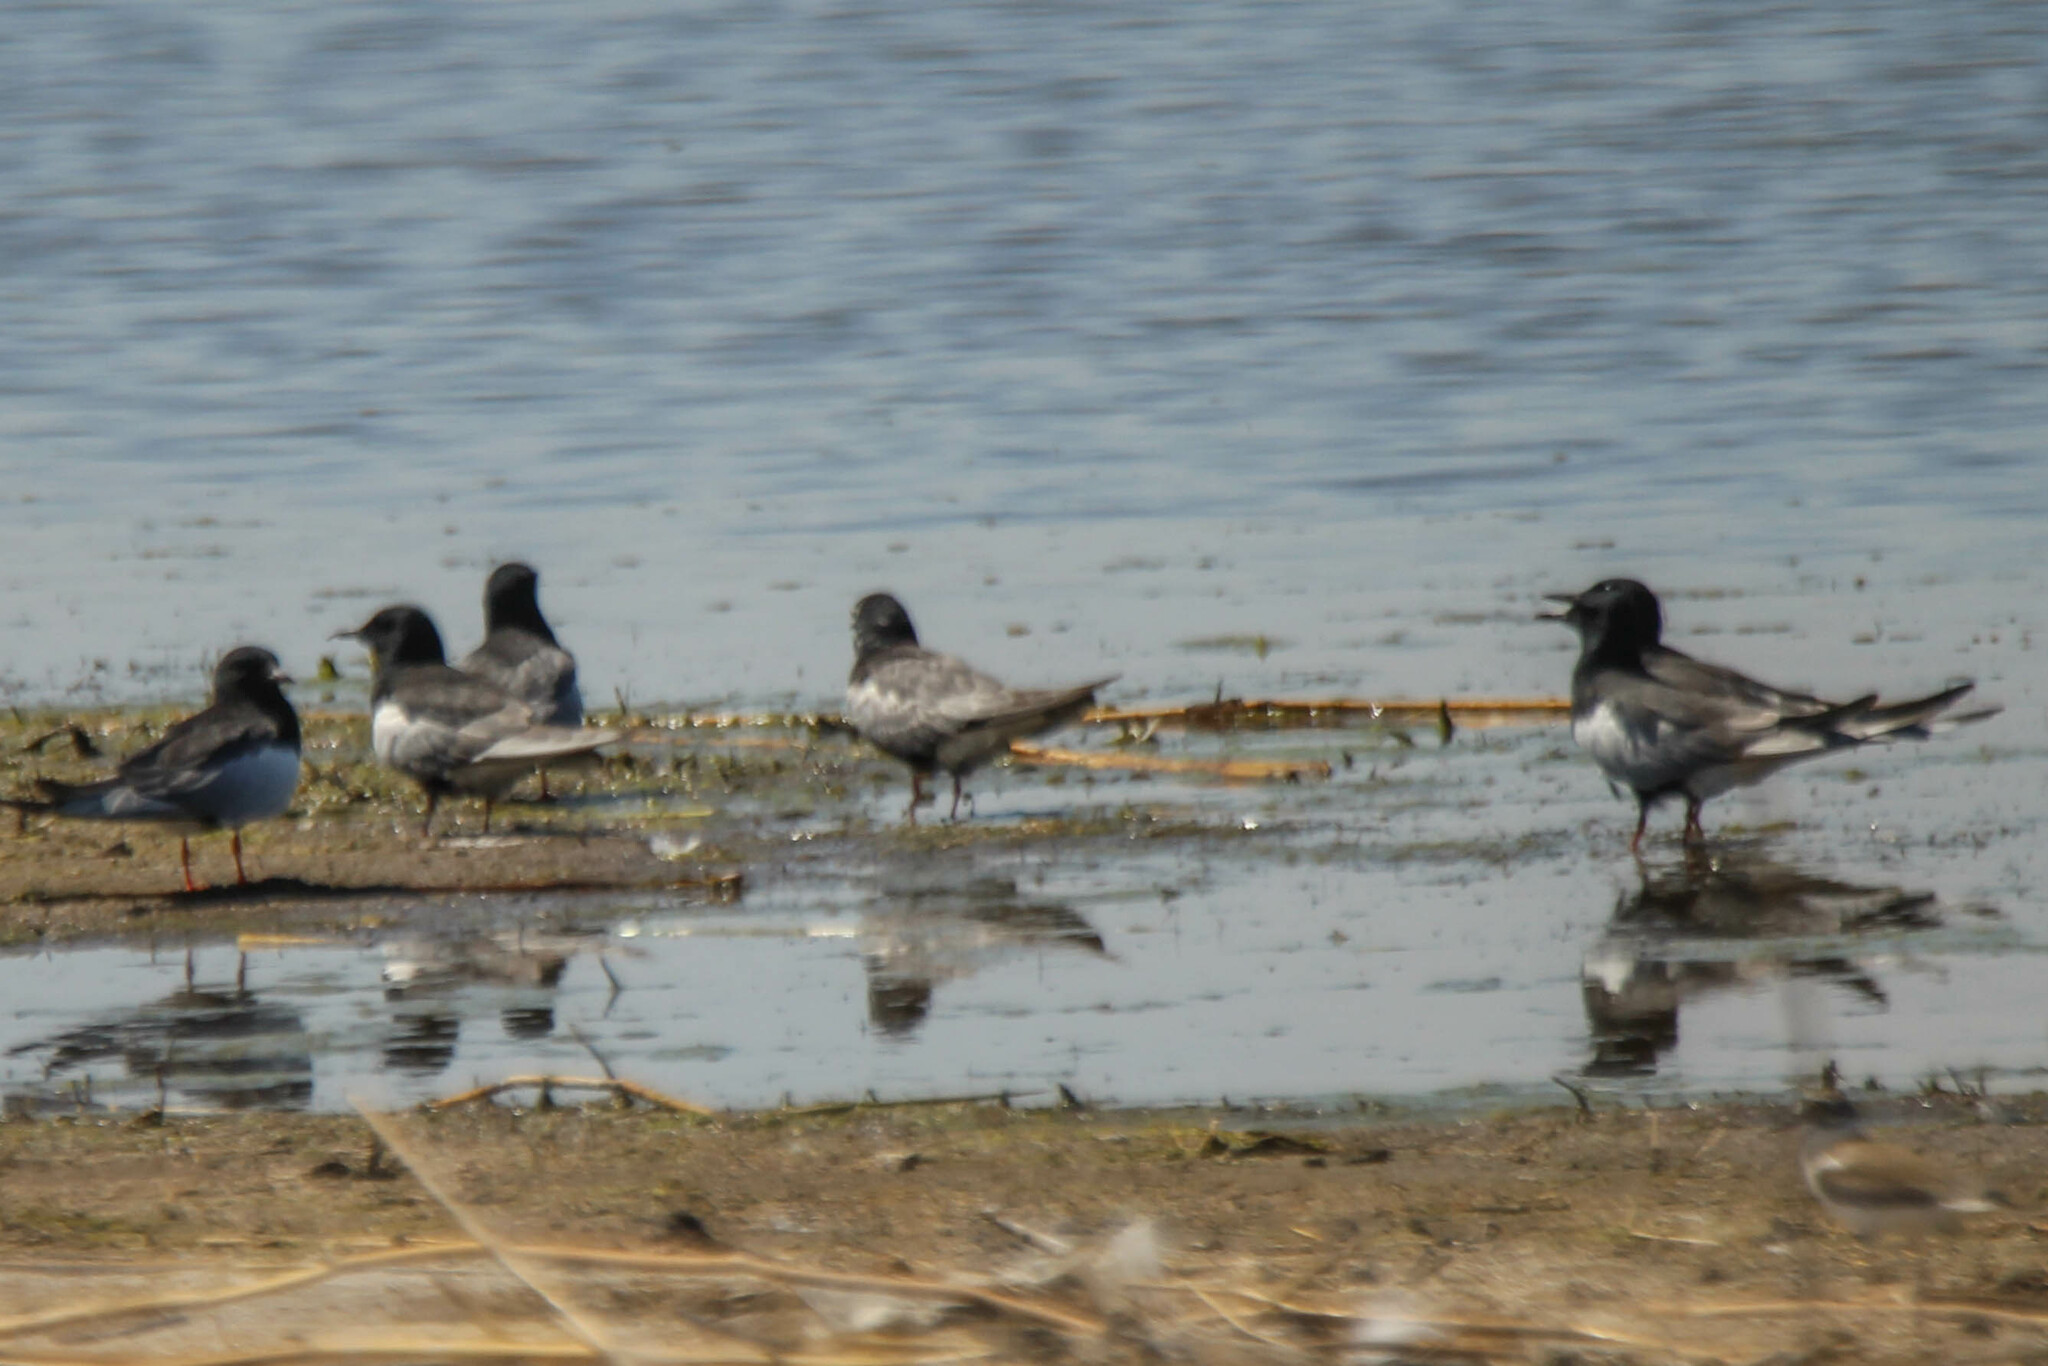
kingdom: Animalia
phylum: Chordata
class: Aves
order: Charadriiformes
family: Laridae
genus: Chlidonias
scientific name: Chlidonias leucopterus
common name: White-winged tern
